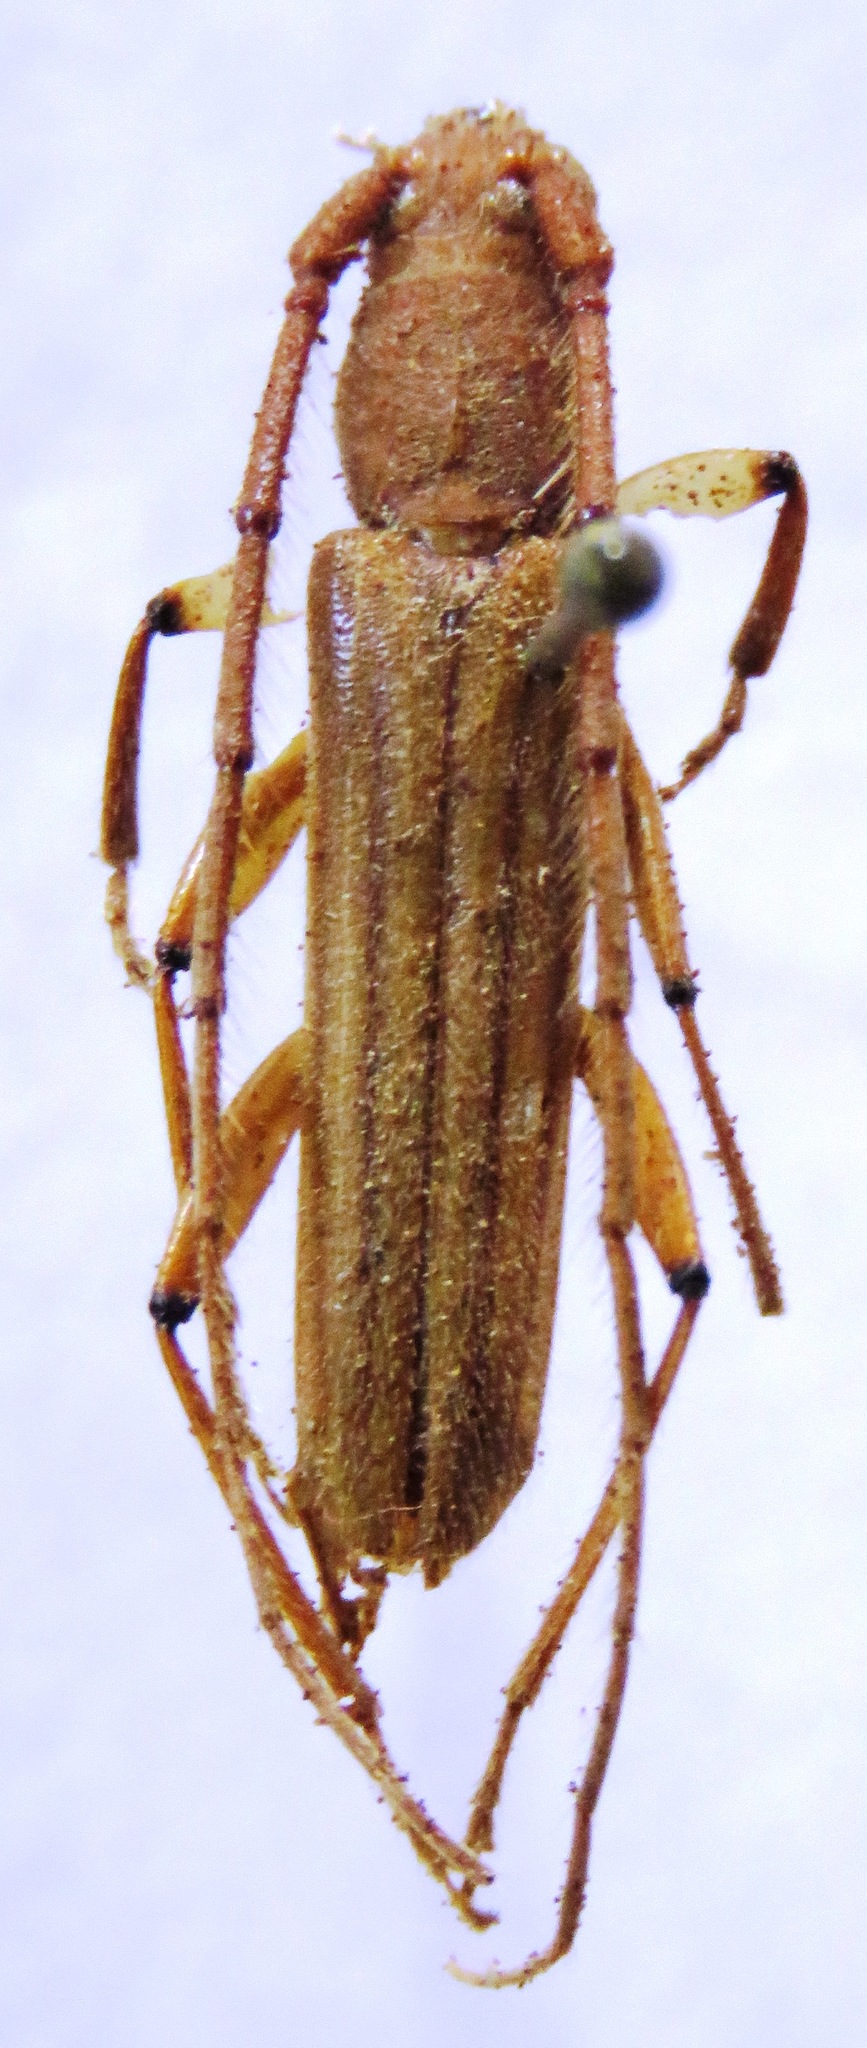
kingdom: Animalia
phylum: Arthropoda
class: Insecta
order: Coleoptera
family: Cerambycidae
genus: Malacopterus
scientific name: Malacopterus tenellus
